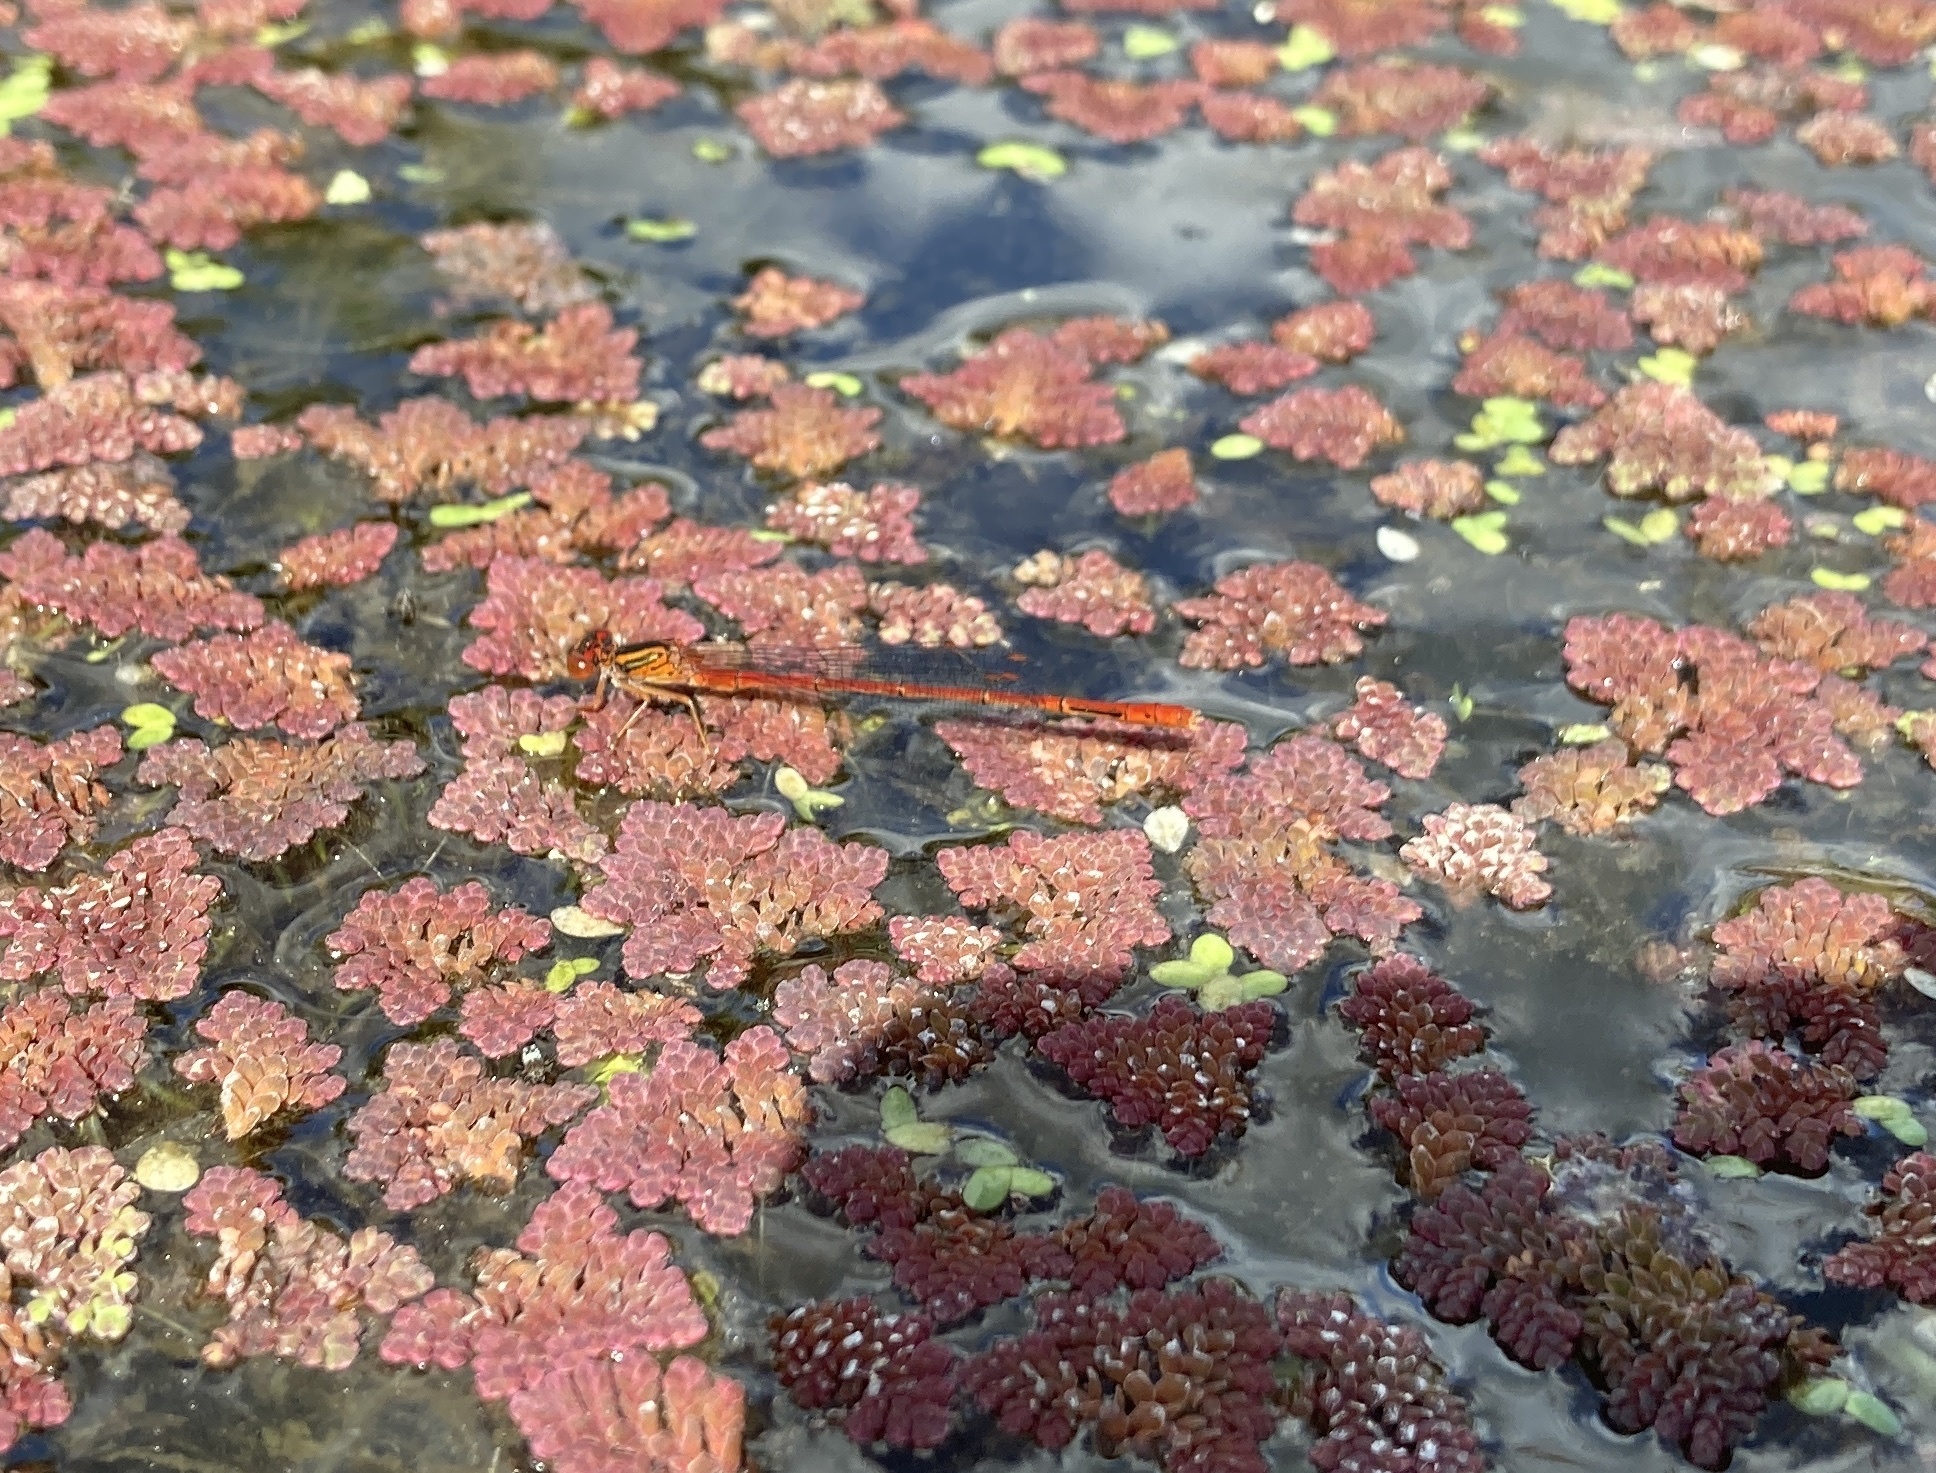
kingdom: Animalia
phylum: Arthropoda
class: Insecta
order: Odonata
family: Coenagrionidae
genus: Xanthocnemis
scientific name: Xanthocnemis zealandica
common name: Common redcoat damselfly
